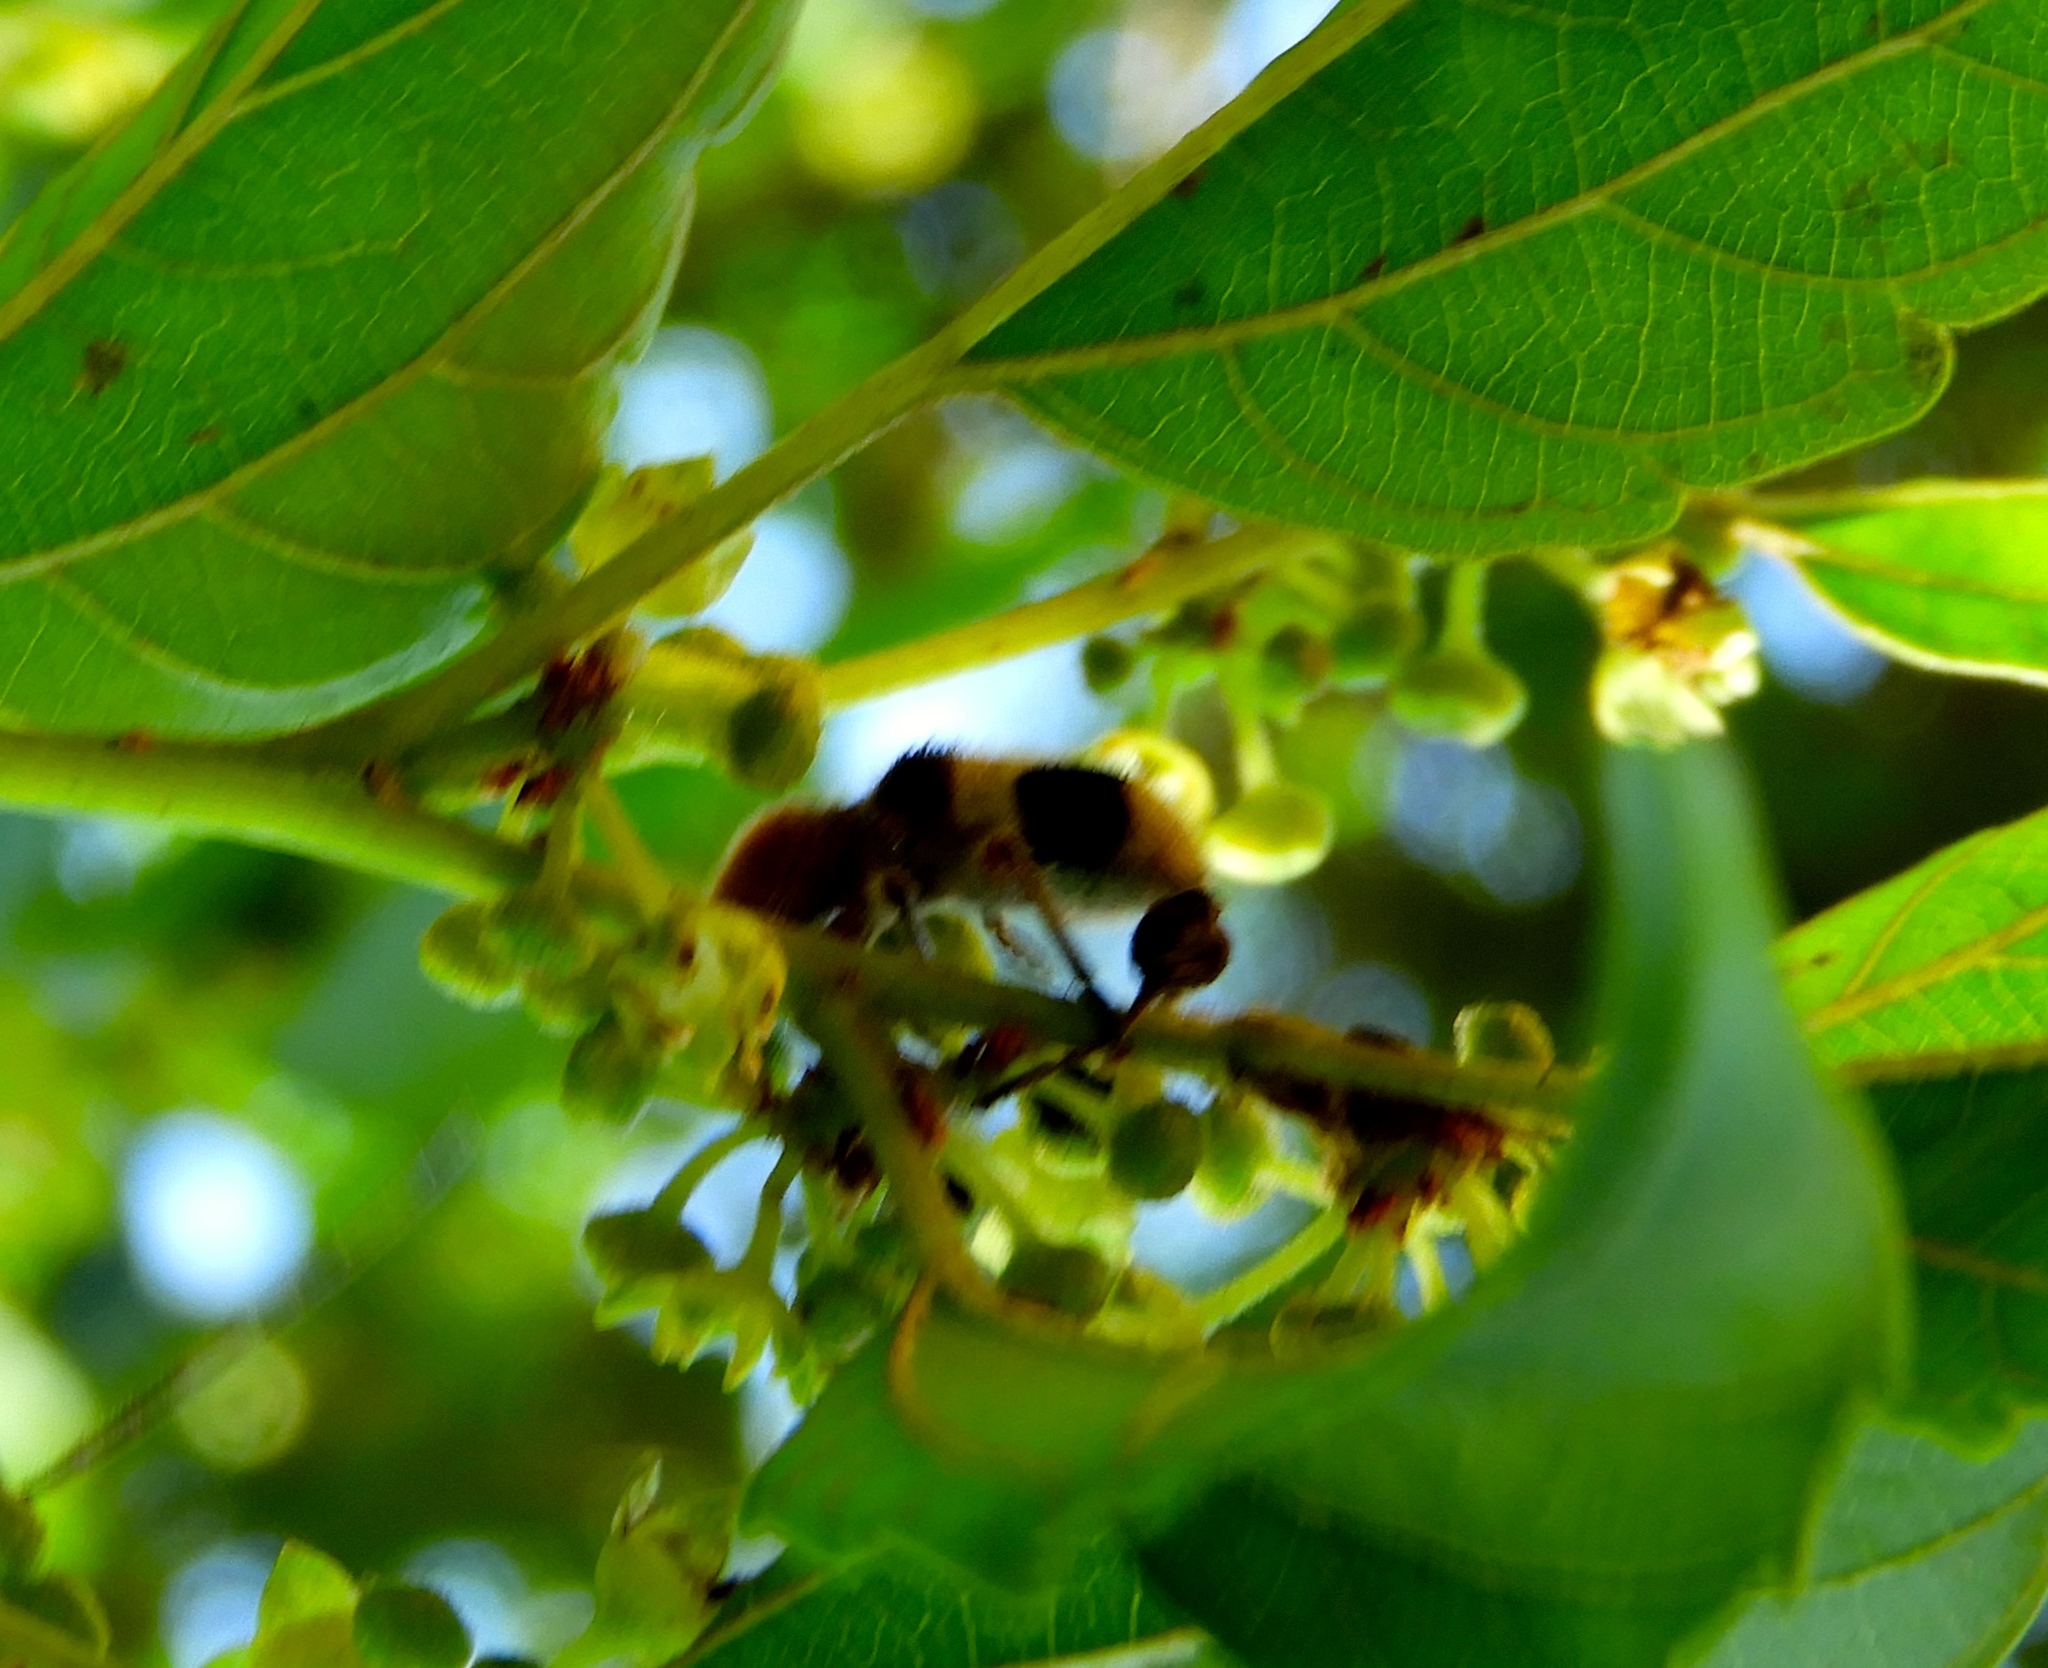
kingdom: Animalia
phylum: Arthropoda
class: Insecta
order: Coleoptera
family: Cleridae
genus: Enoclerus
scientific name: Enoclerus quadriguttatus
